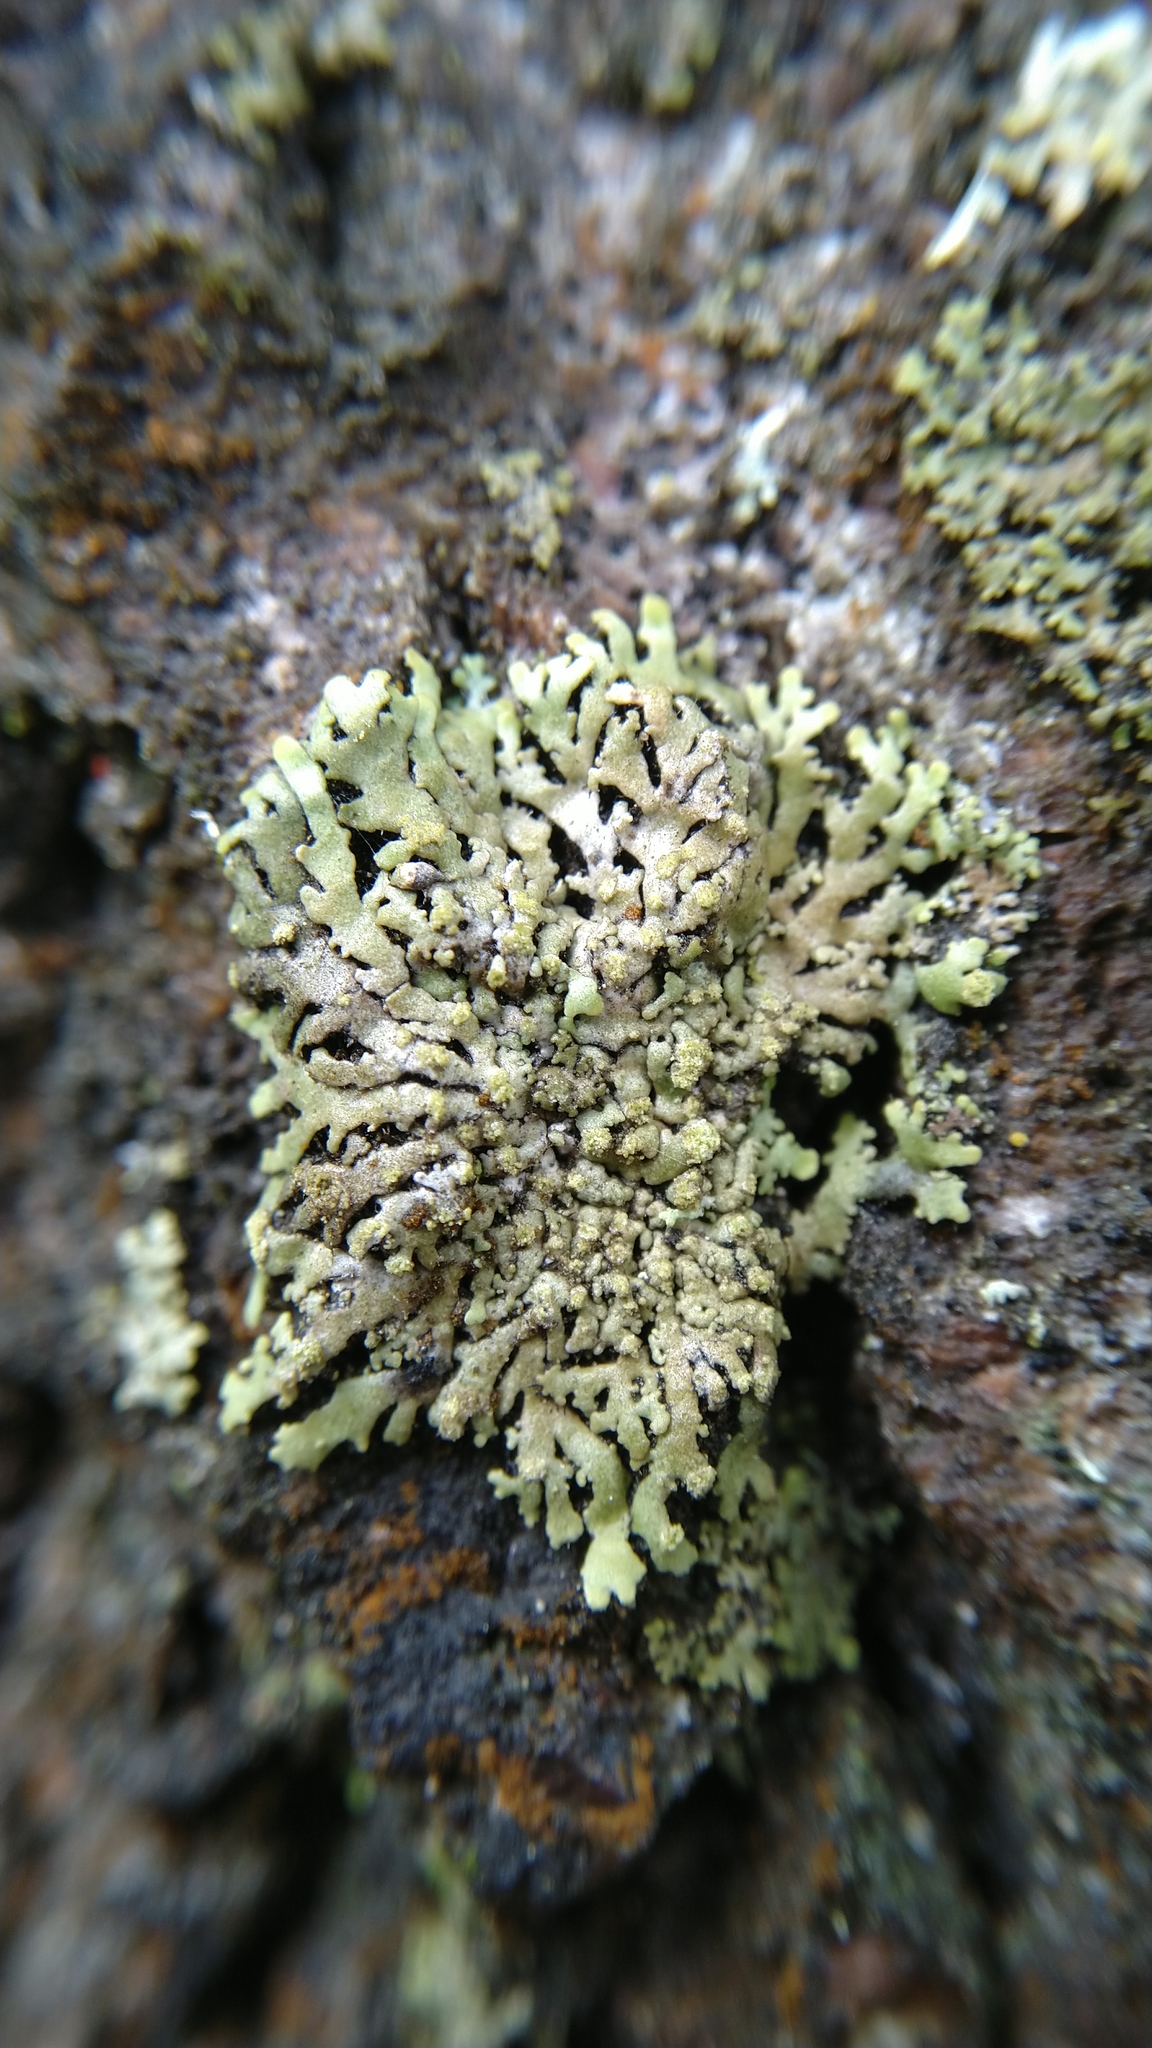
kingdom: Fungi
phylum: Ascomycota
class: Lecanoromycetes
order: Caliciales
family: Physciaceae
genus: Phaeophyscia
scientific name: Phaeophyscia orbicularis
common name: Mealy shadow lichen
